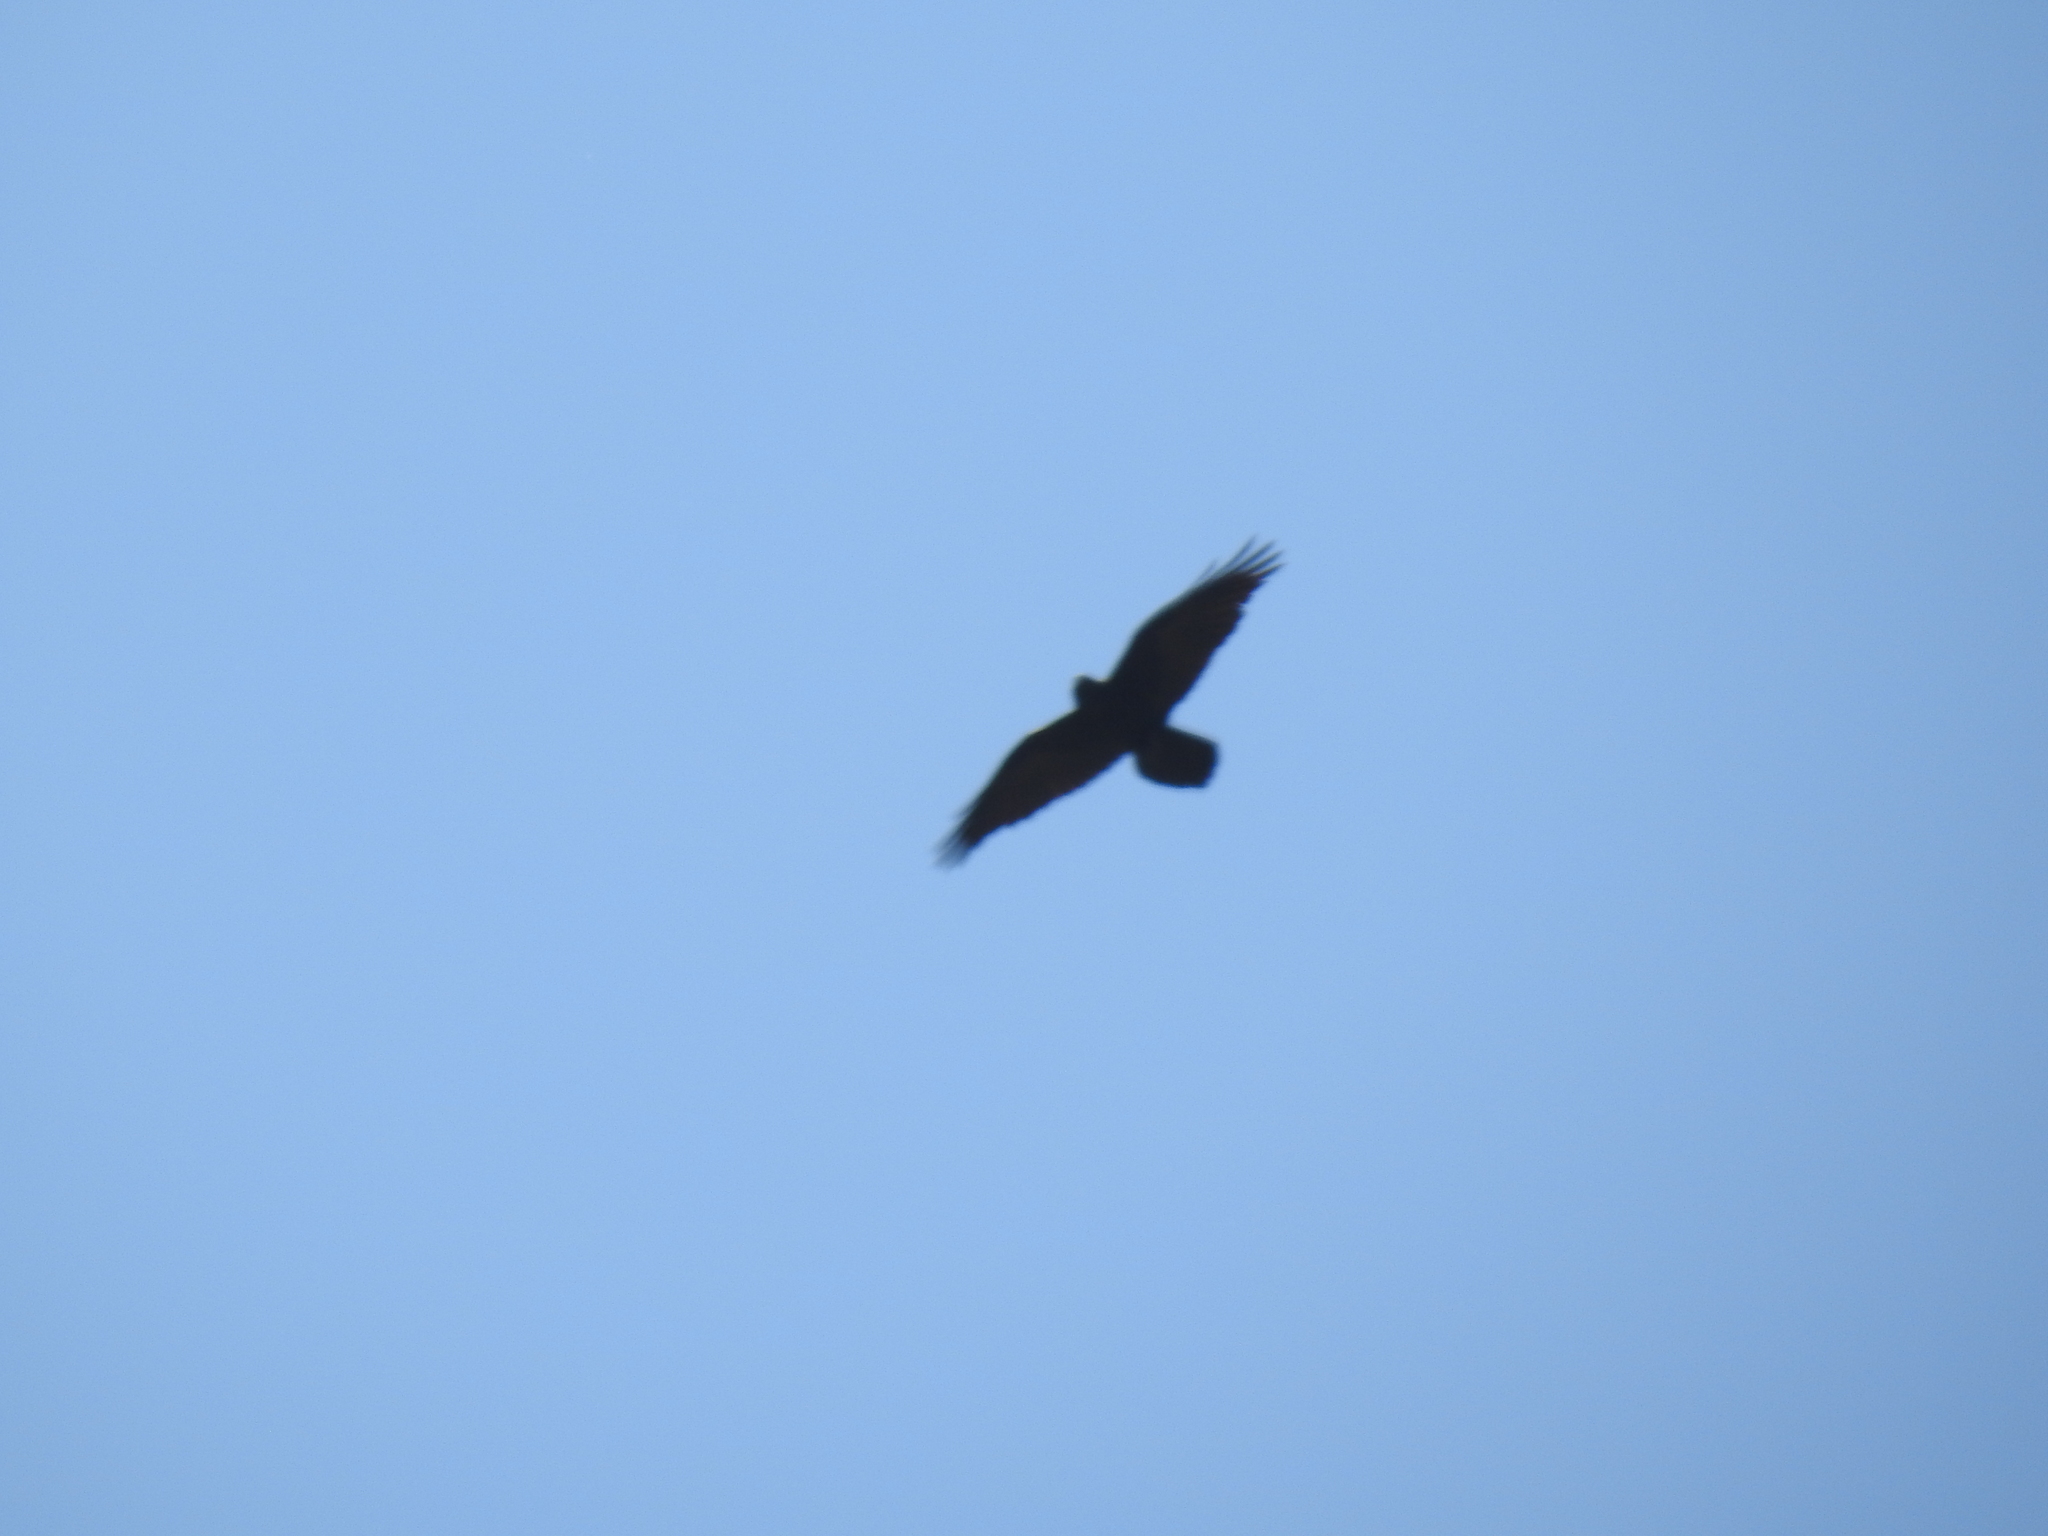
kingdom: Animalia
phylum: Chordata
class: Aves
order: Passeriformes
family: Corvidae
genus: Corvus
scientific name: Corvus corax
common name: Common raven
